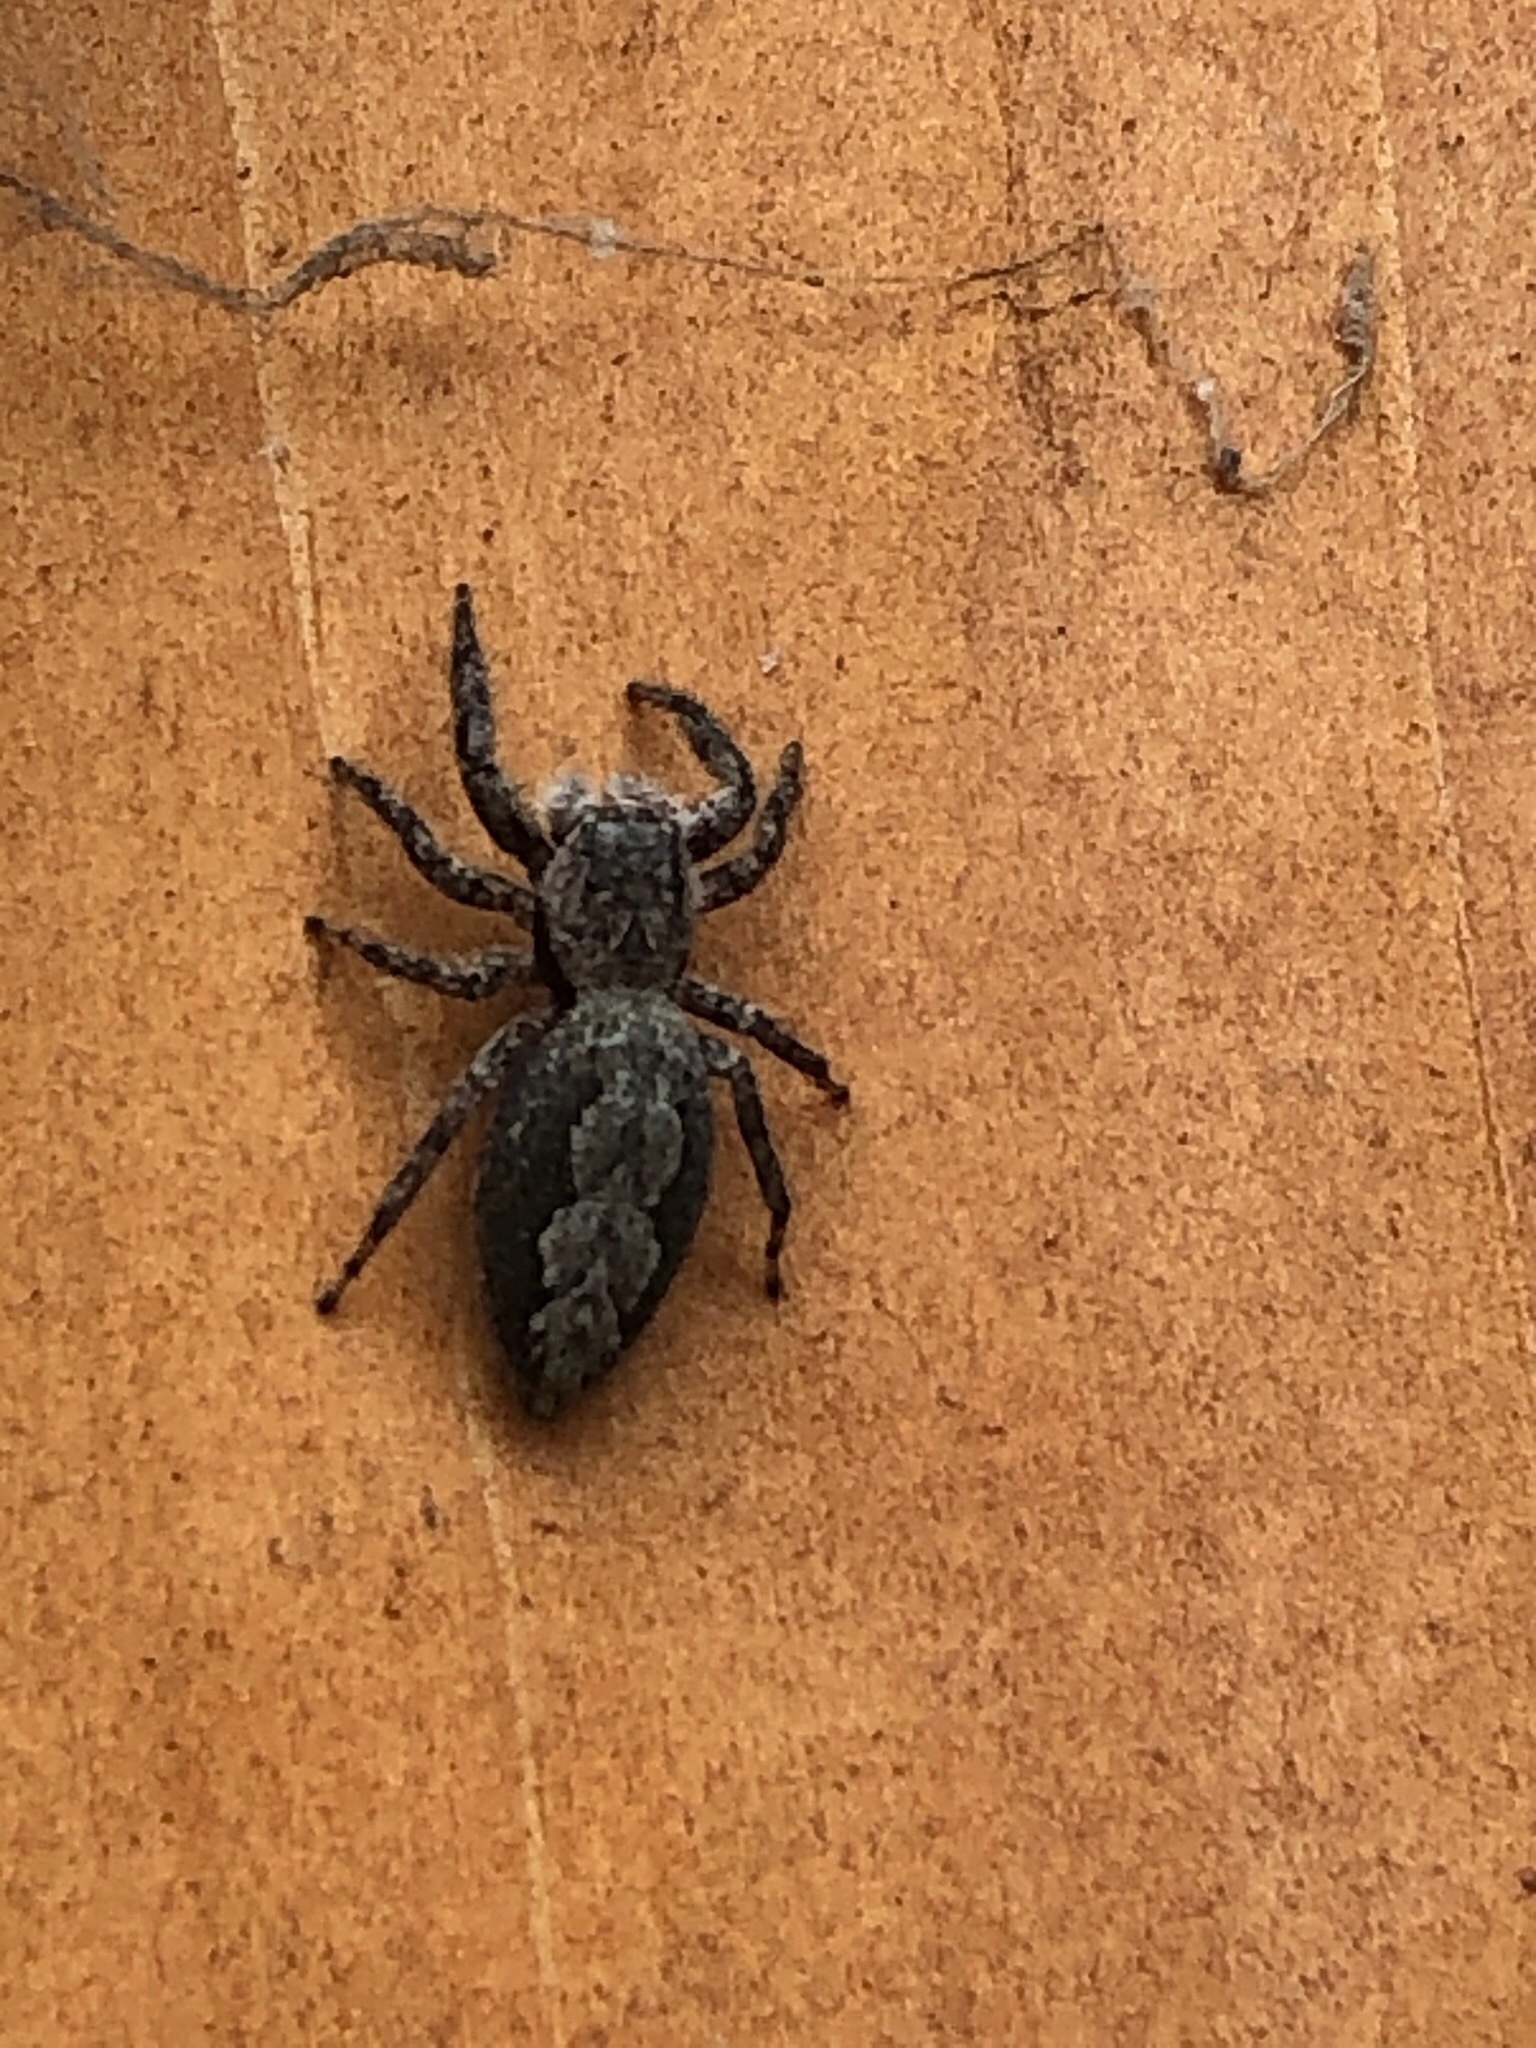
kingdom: Animalia
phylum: Arthropoda
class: Arachnida
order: Araneae
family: Salticidae
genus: Platycryptus
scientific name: Platycryptus undatus
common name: Tan jumping spider
